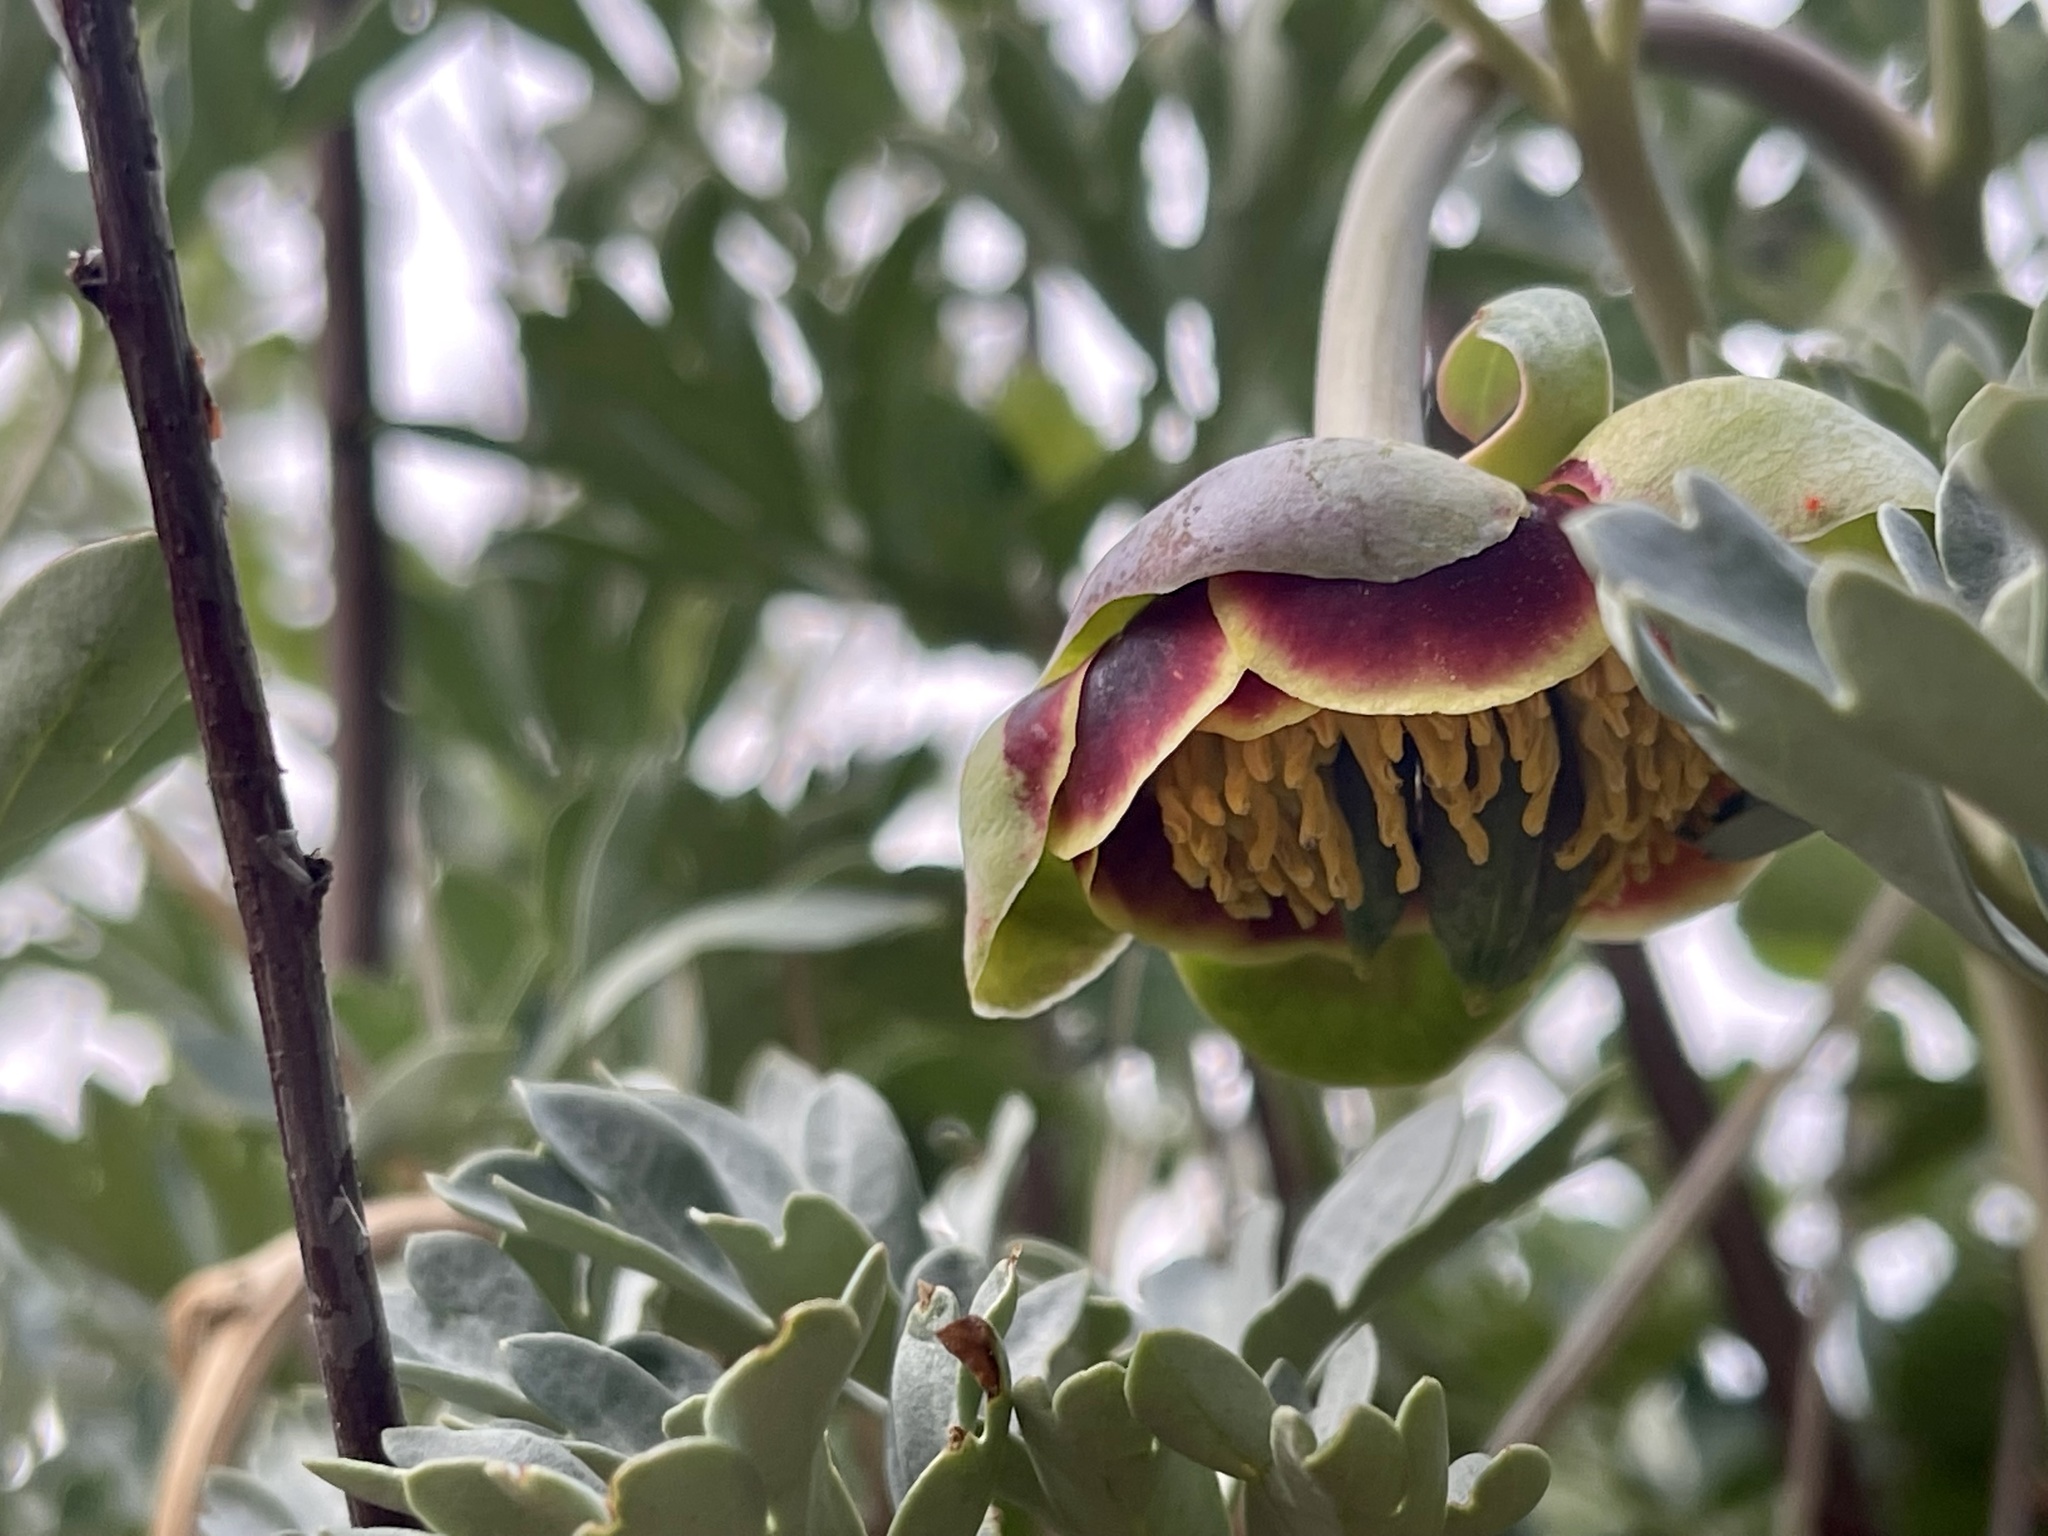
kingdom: Plantae
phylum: Tracheophyta
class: Magnoliopsida
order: Saxifragales
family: Paeoniaceae
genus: Paeonia
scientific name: Paeonia brownii
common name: Brown's peony
